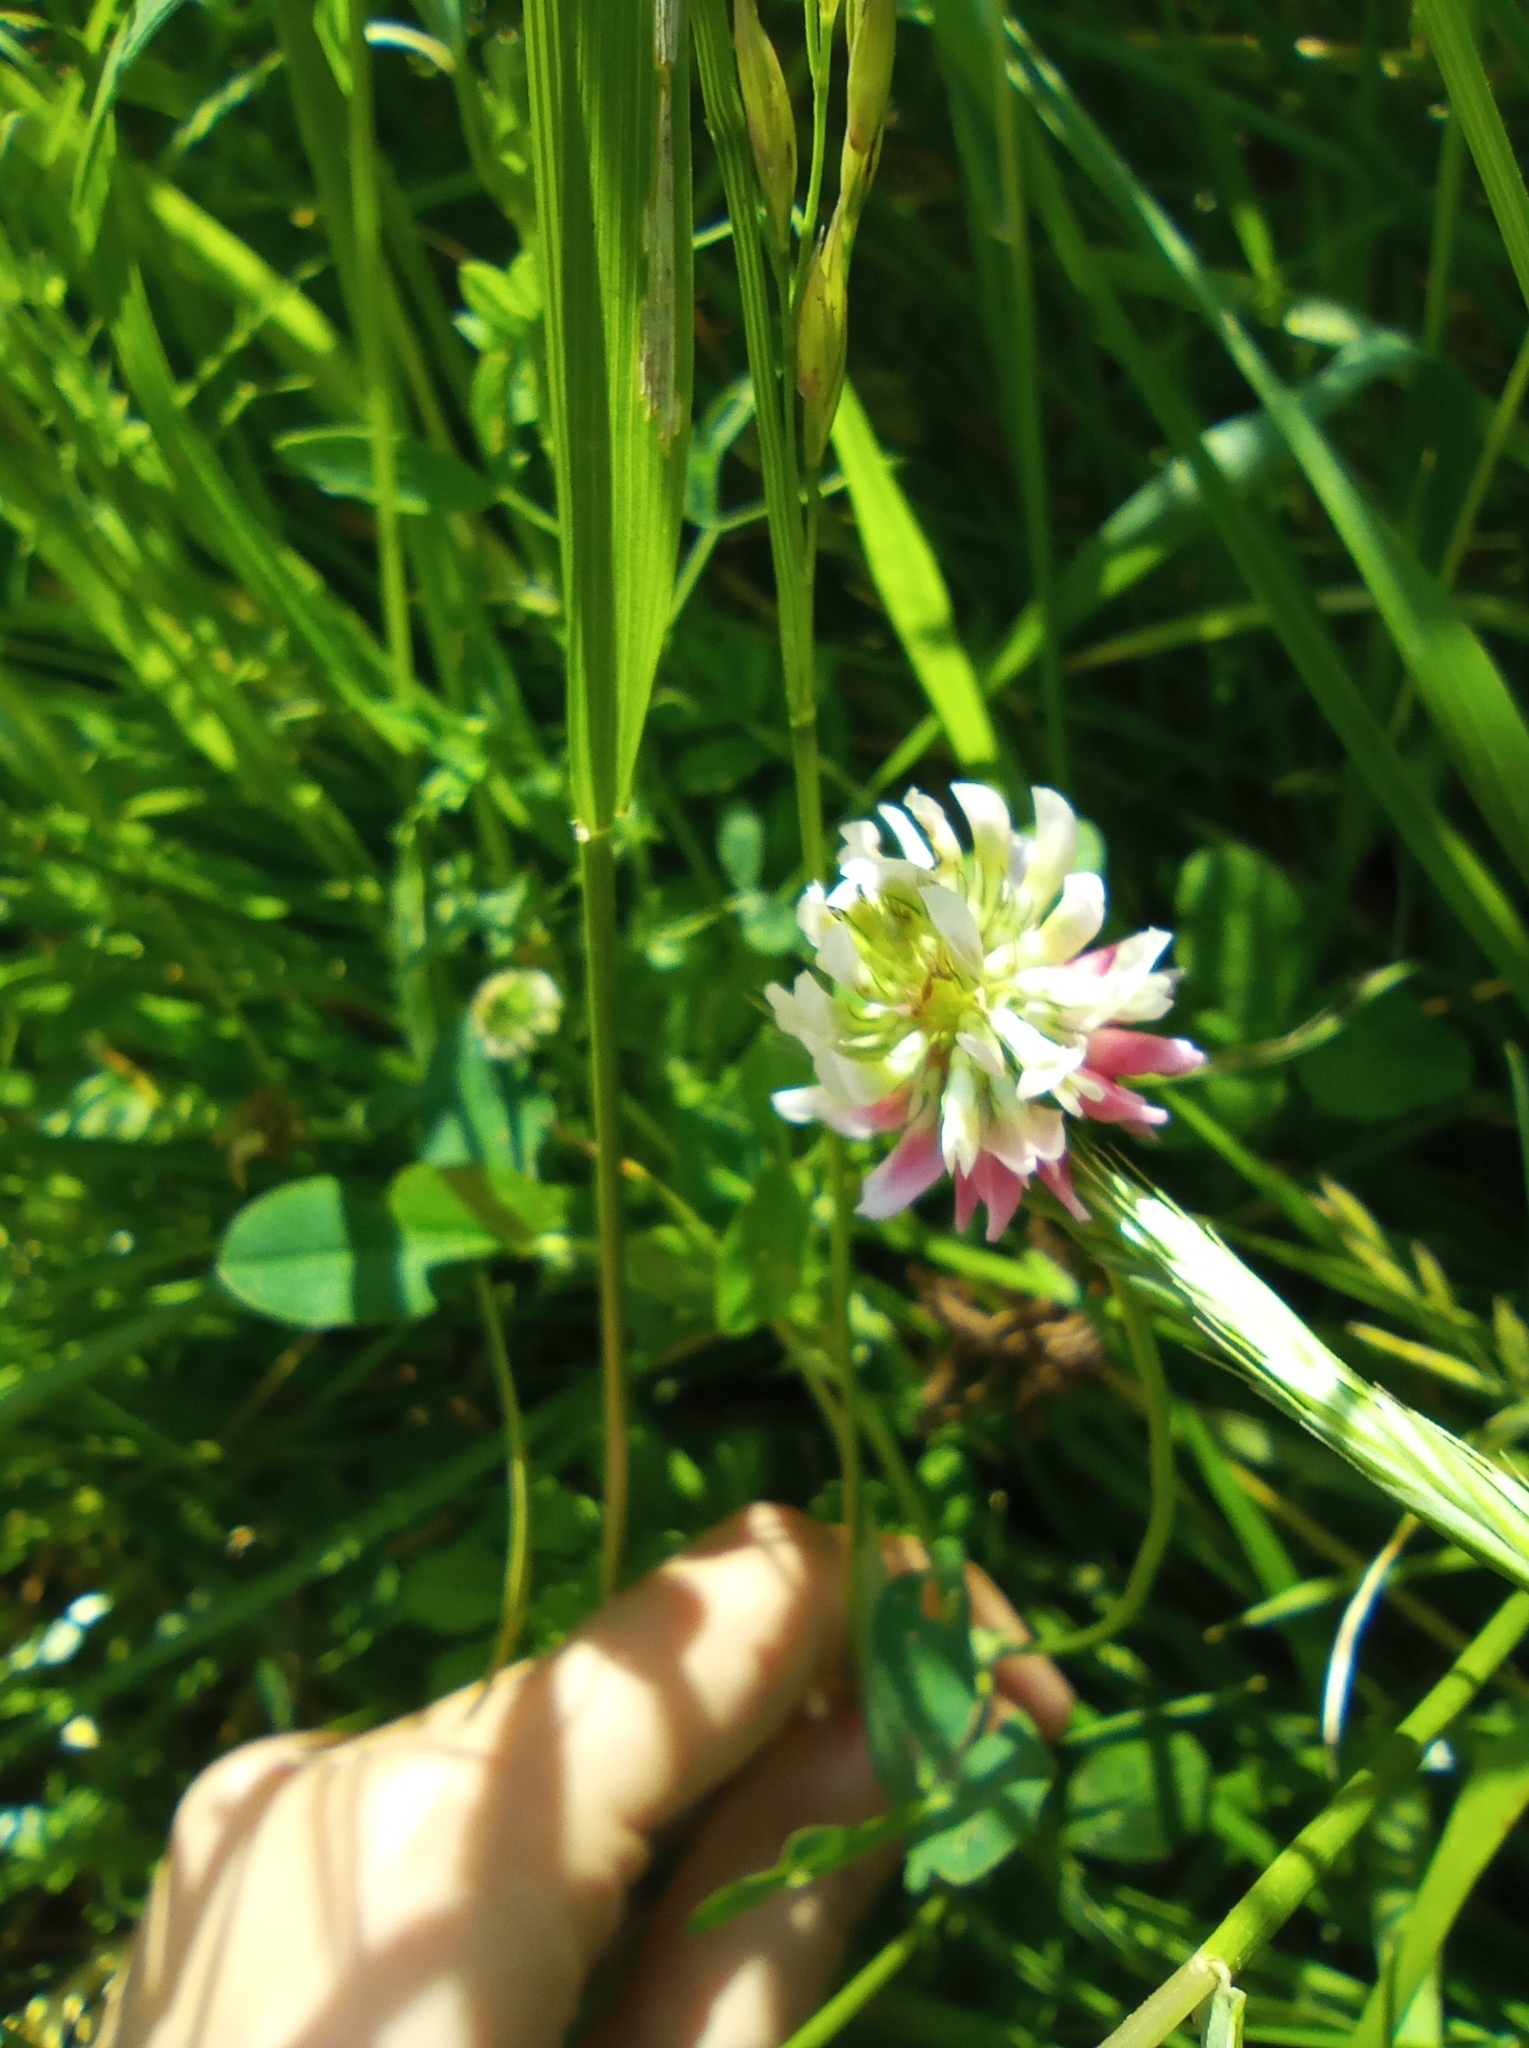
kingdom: Plantae
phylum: Tracheophyta
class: Magnoliopsida
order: Fabales
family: Fabaceae
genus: Trifolium
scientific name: Trifolium hybridum
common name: Alsike clover
